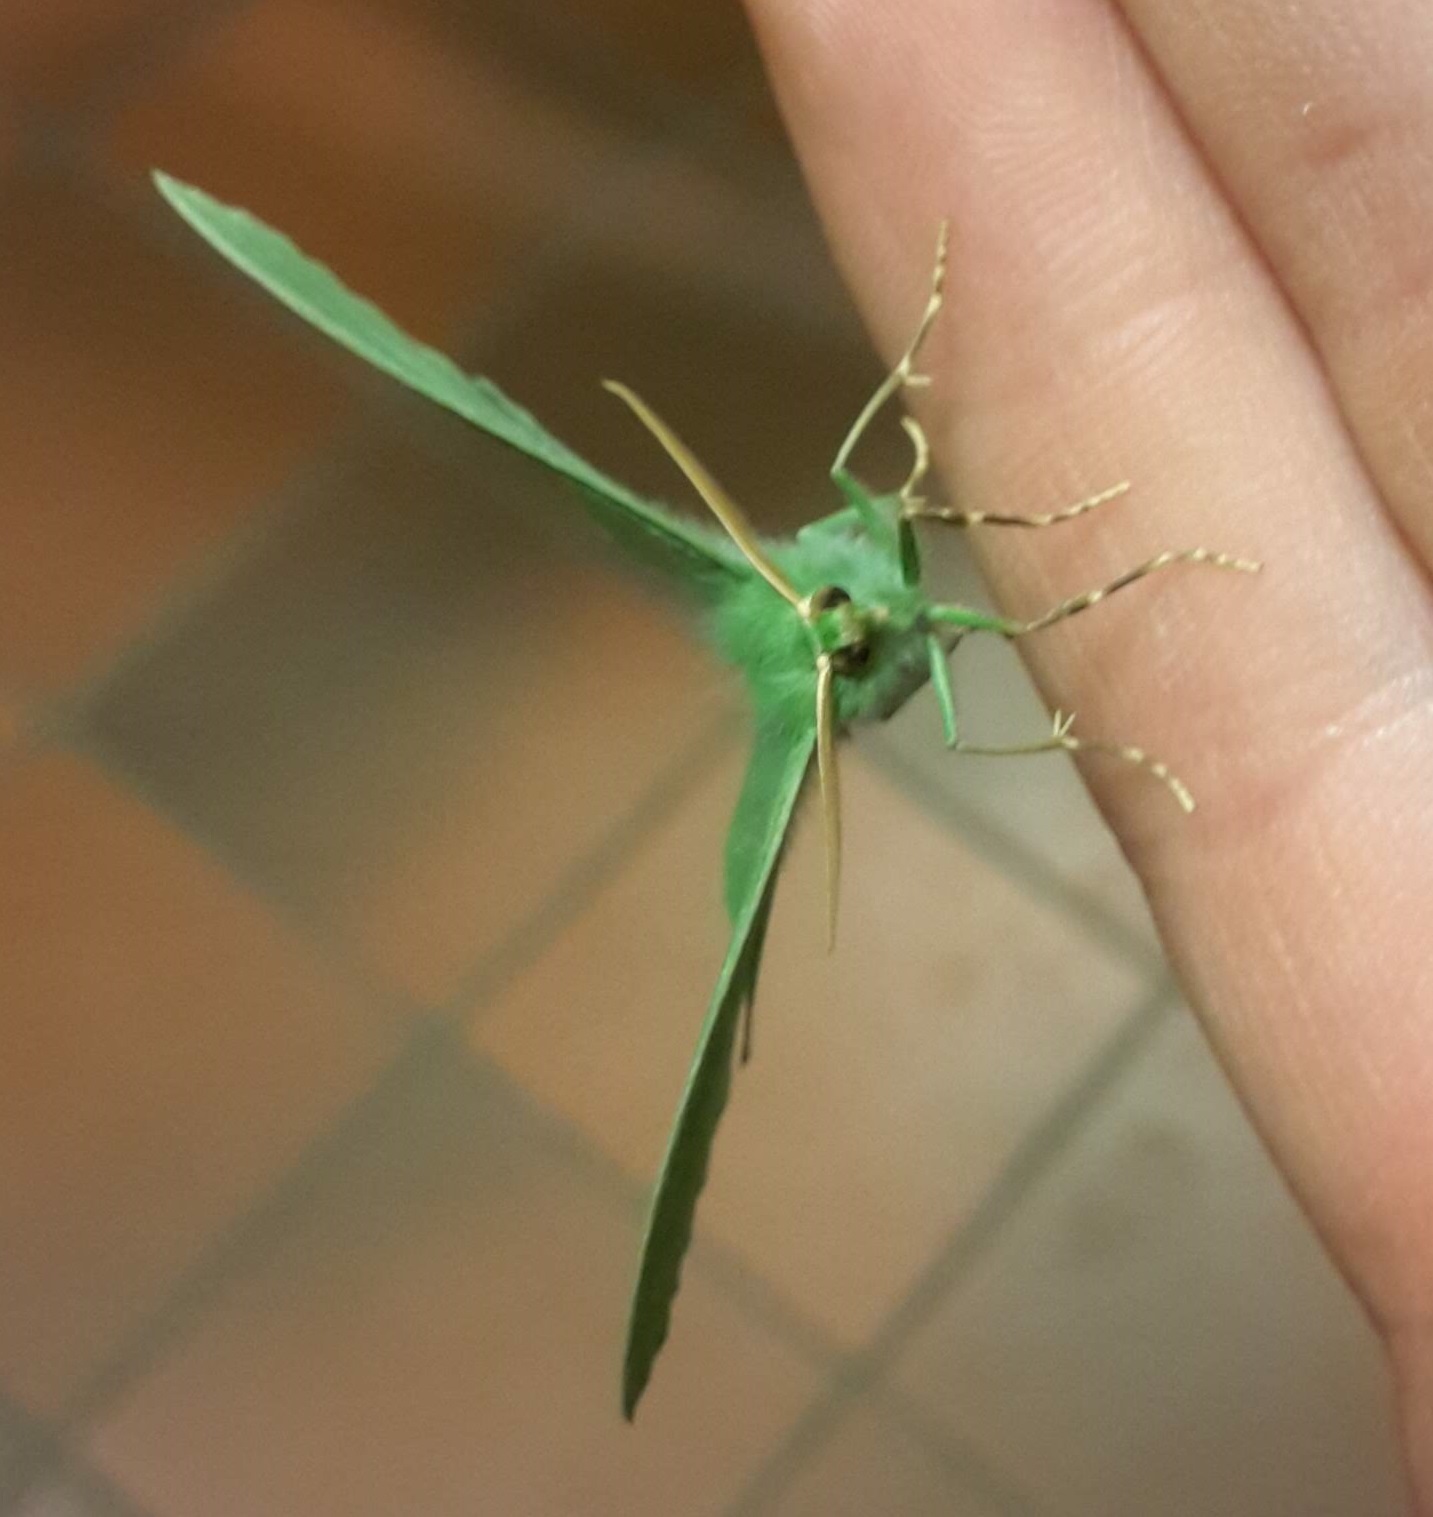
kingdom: Animalia
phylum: Arthropoda
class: Insecta
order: Lepidoptera
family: Geometridae
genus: Geometra
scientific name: Geometra papilionaria
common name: Large emerald
